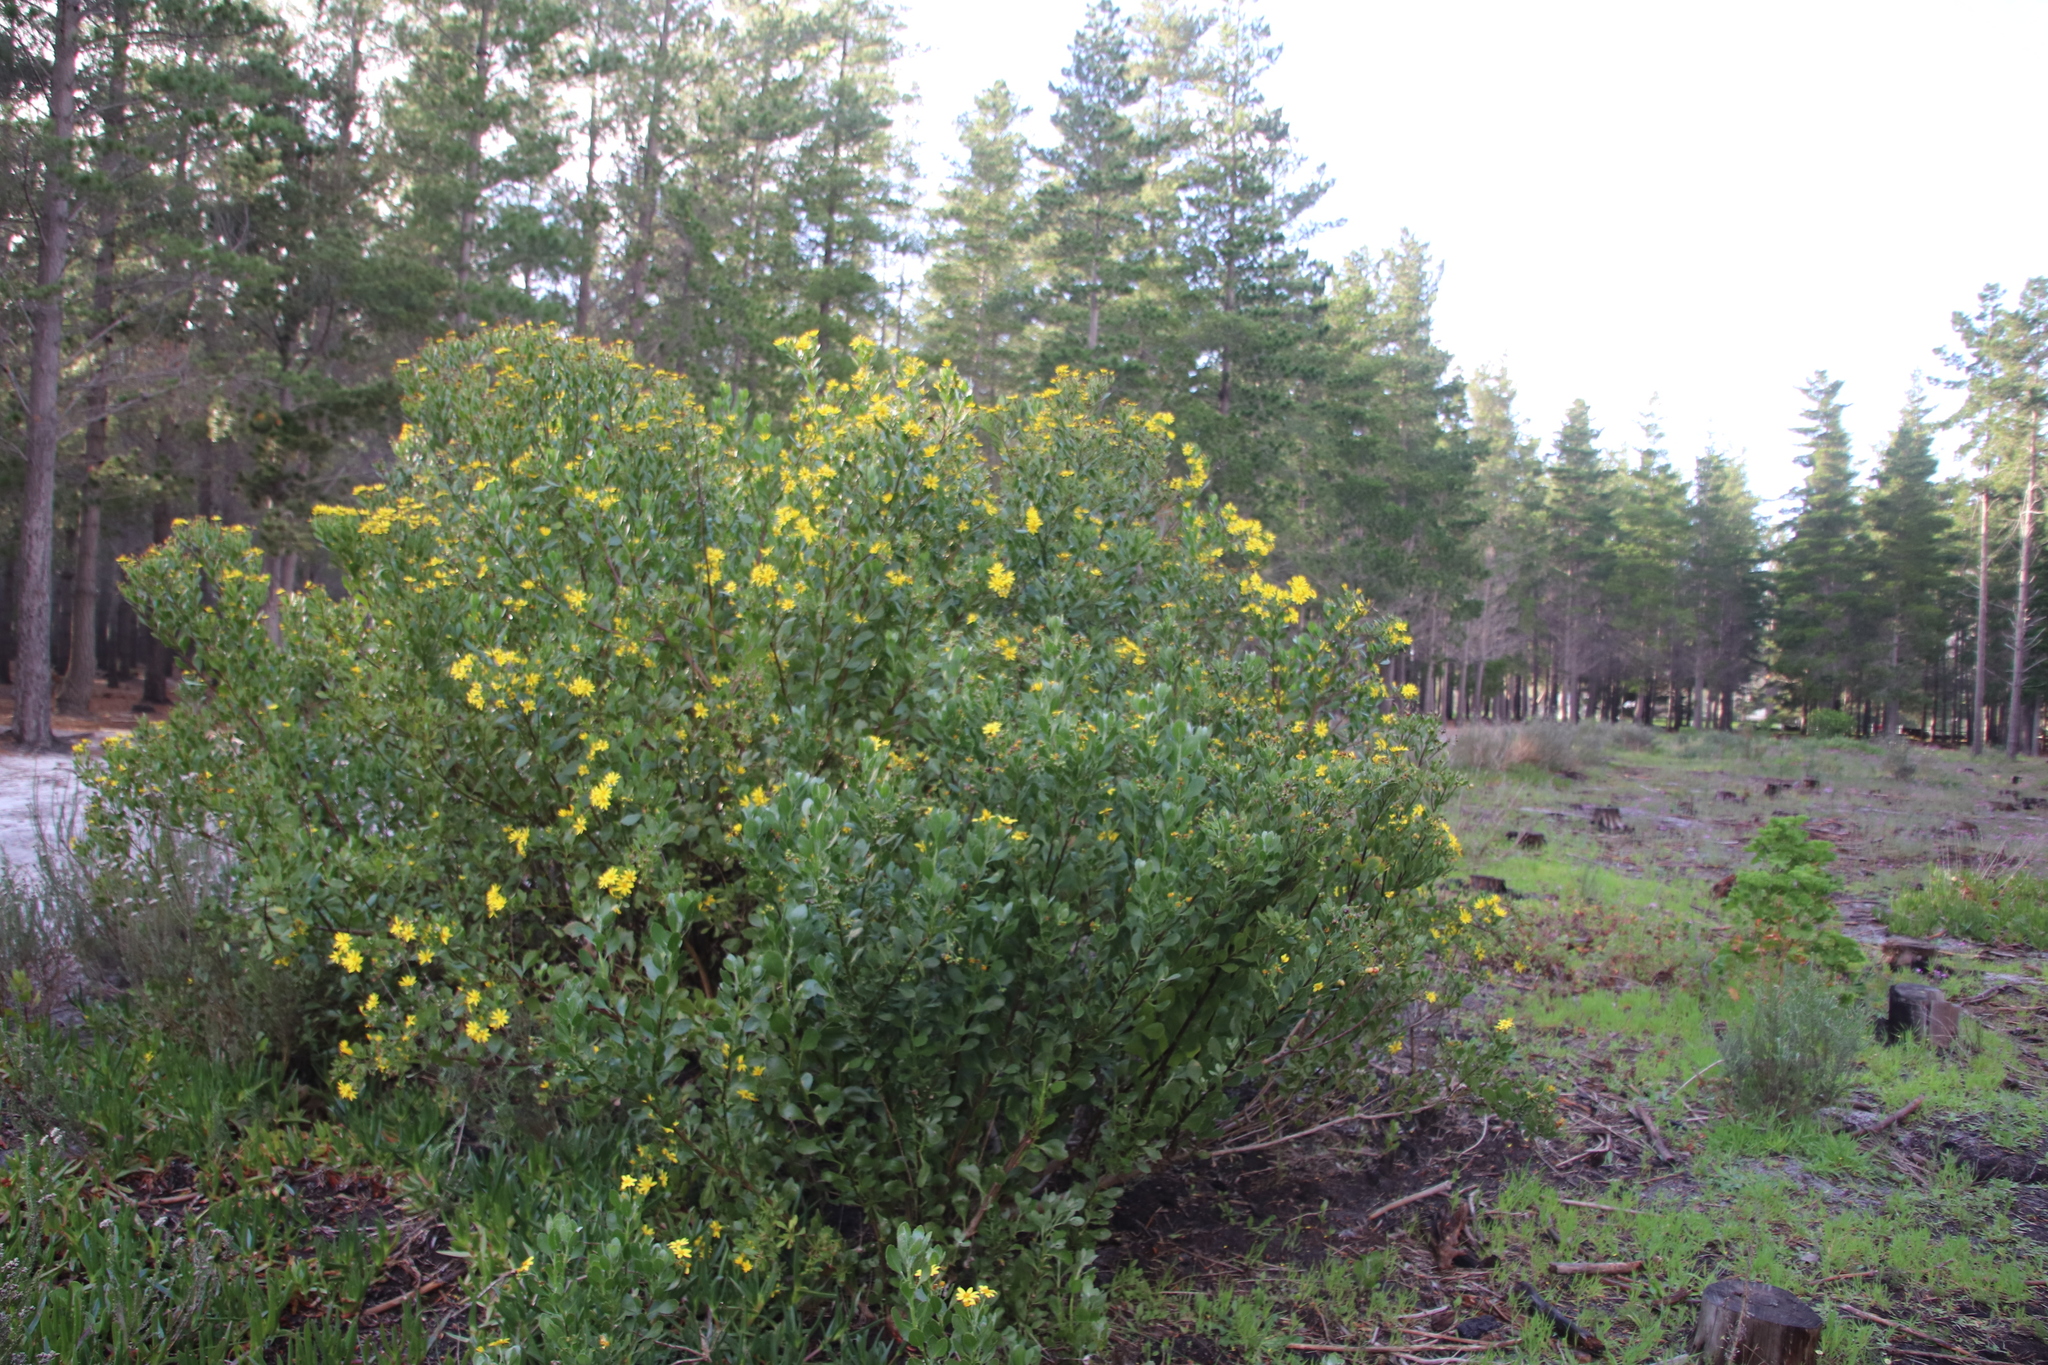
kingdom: Plantae
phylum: Tracheophyta
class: Magnoliopsida
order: Asterales
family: Asteraceae
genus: Osteospermum
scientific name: Osteospermum moniliferum
